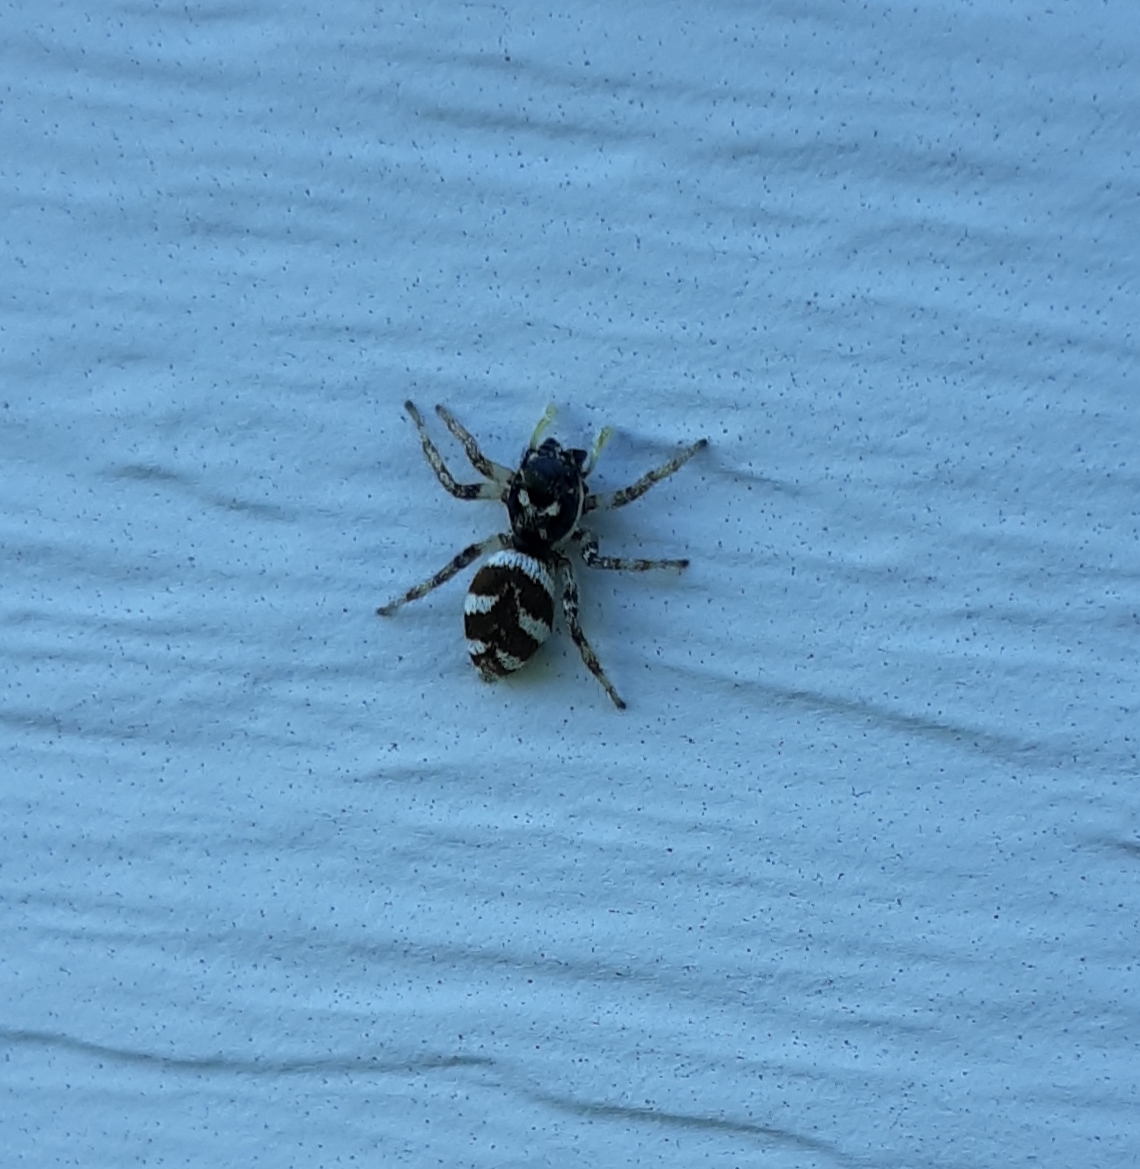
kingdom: Animalia
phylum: Arthropoda
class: Arachnida
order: Araneae
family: Salticidae
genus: Salticus
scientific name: Salticus scenicus
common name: Zebra jumper
